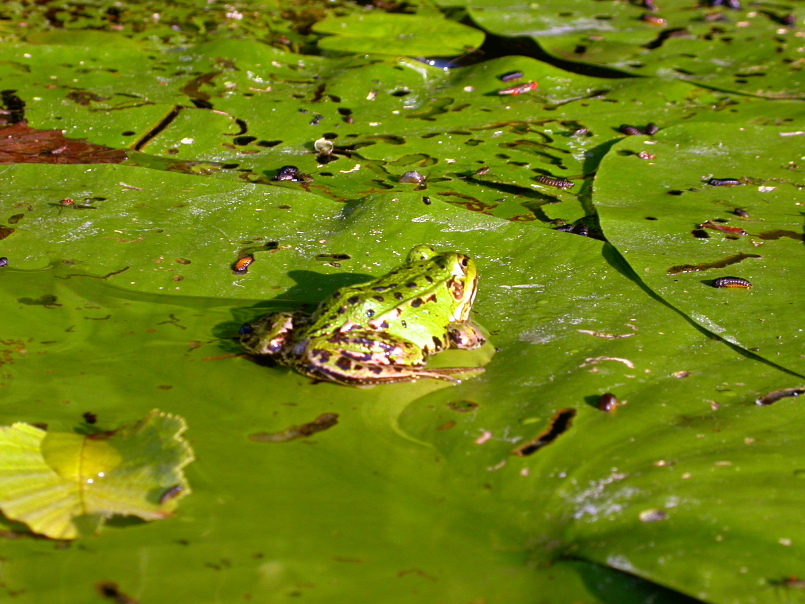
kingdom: Animalia
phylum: Chordata
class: Amphibia
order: Anura
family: Ranidae
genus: Pelophylax
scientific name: Pelophylax
